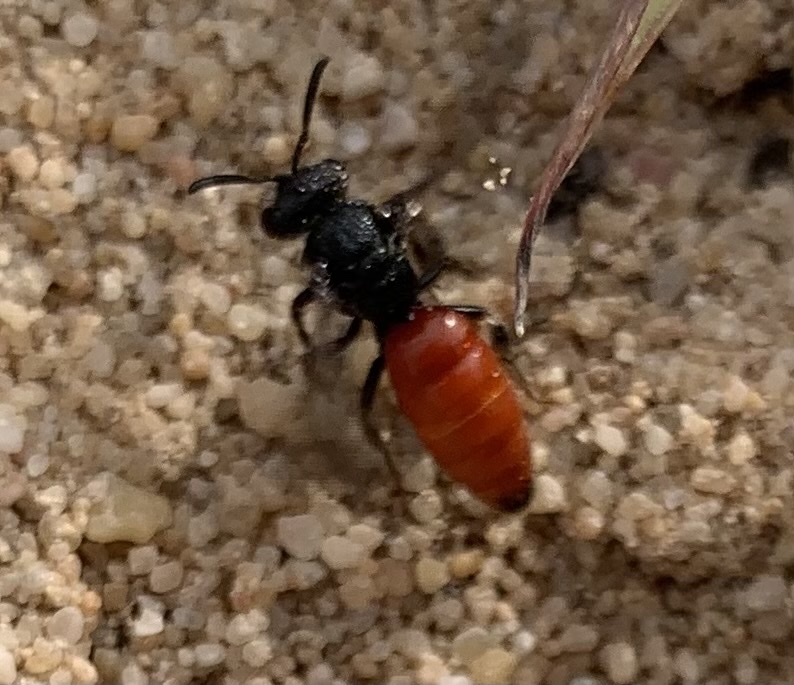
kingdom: Animalia
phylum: Arthropoda
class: Insecta
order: Hymenoptera
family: Halictidae
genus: Sphecodes
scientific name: Sphecodes albilabris
